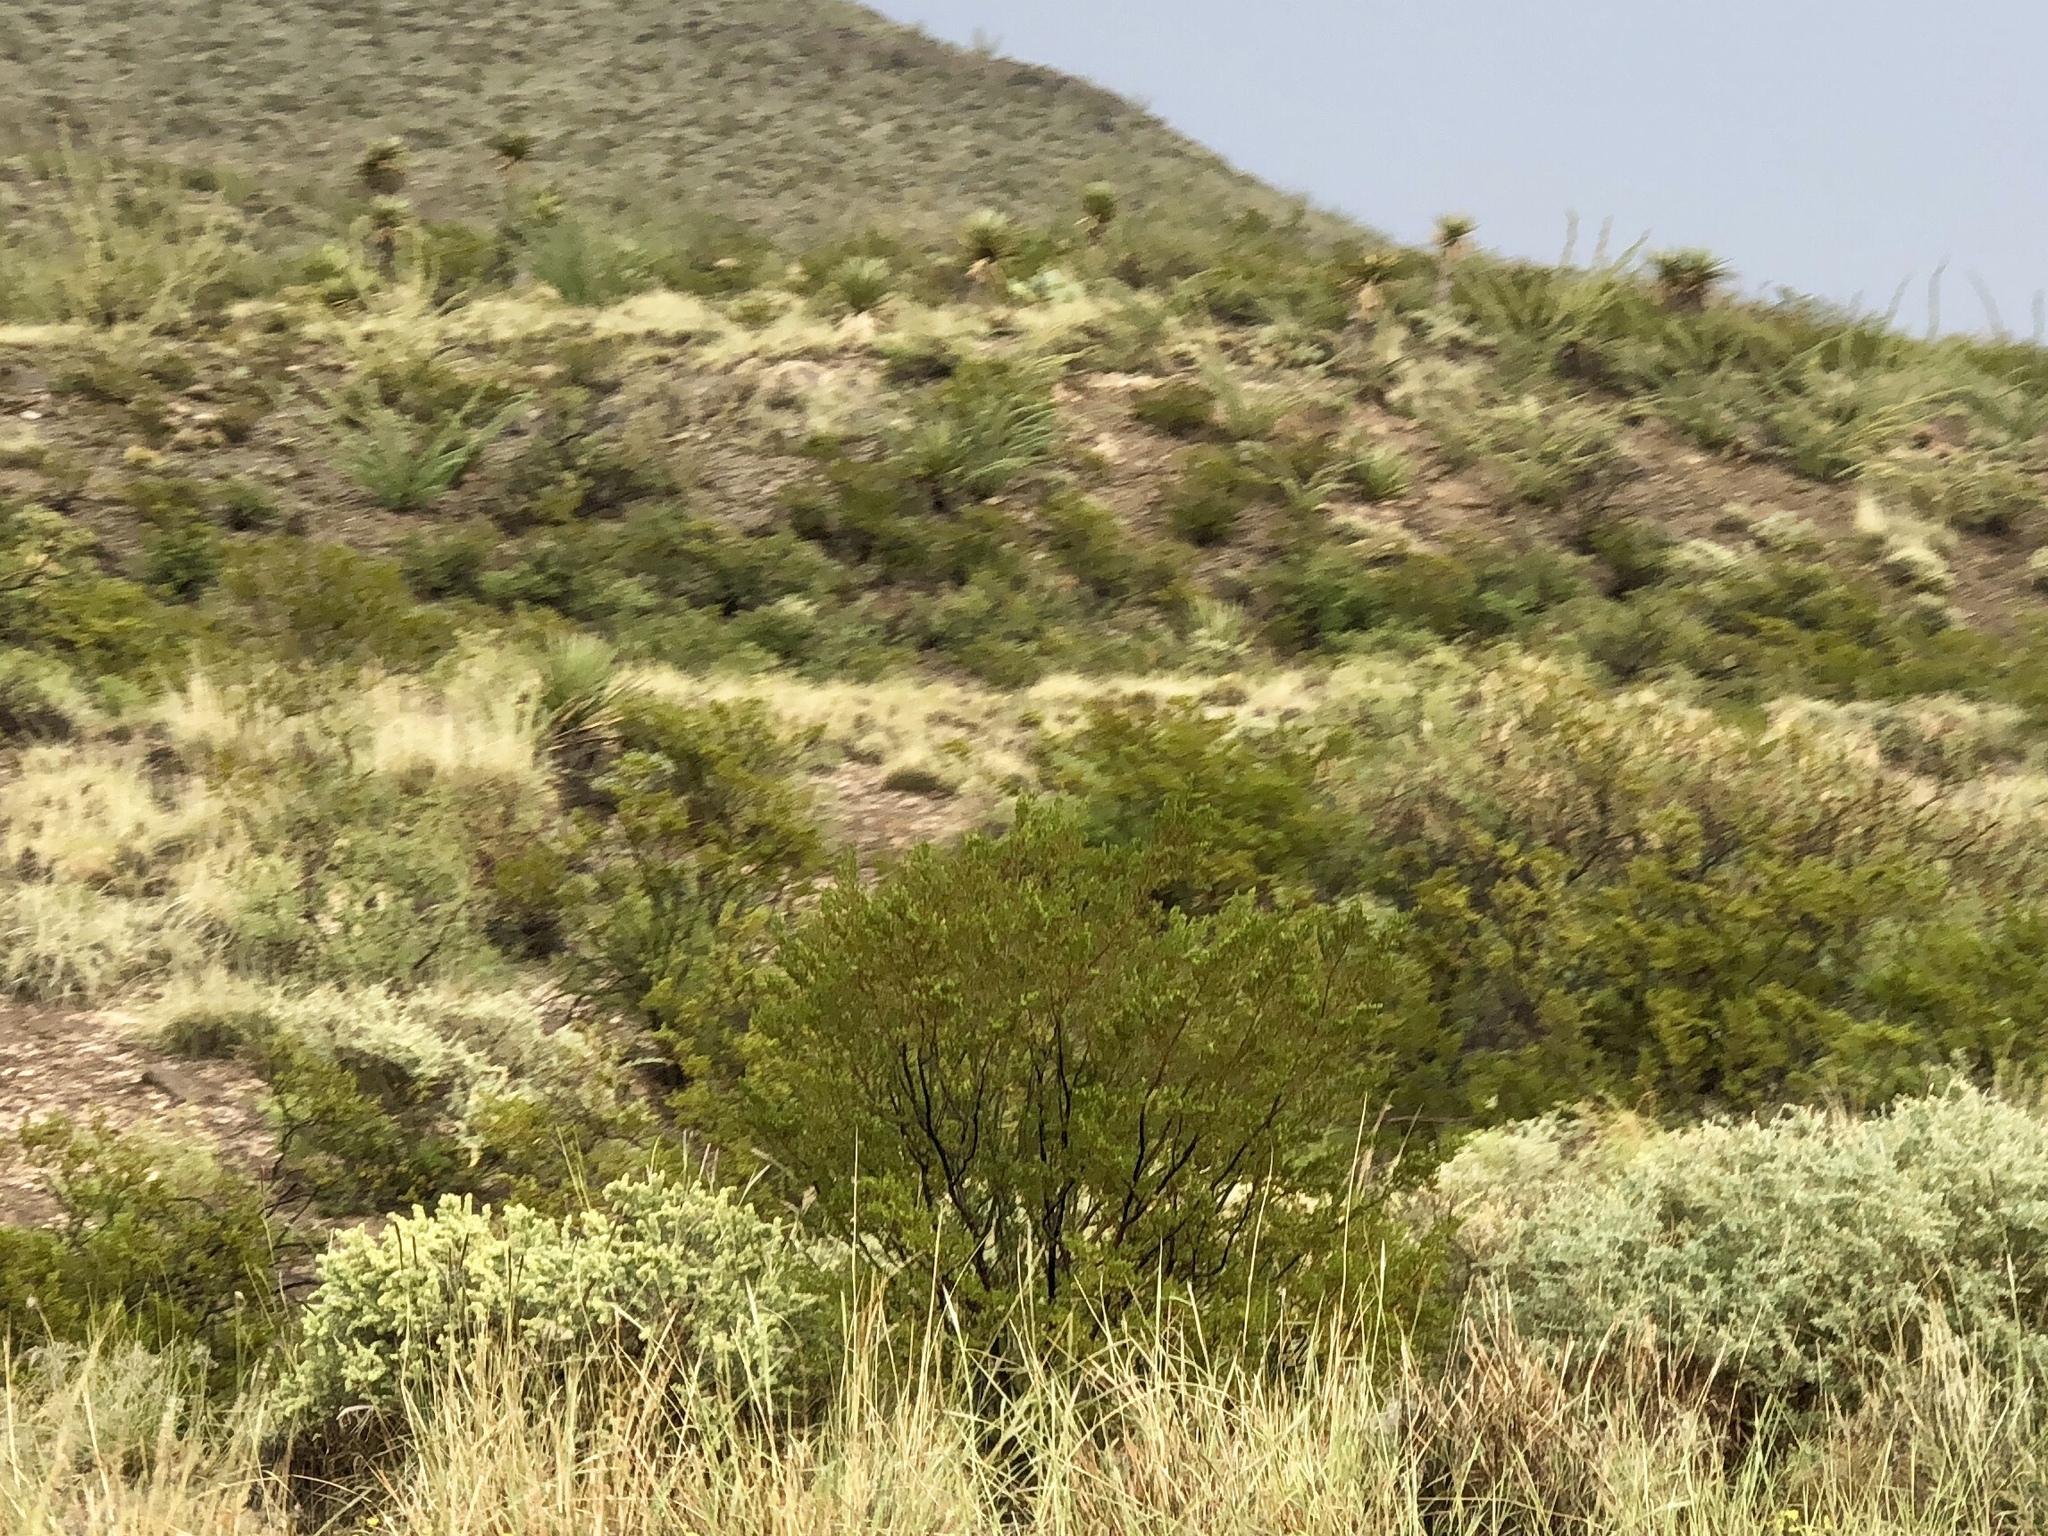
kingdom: Plantae
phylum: Tracheophyta
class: Magnoliopsida
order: Zygophyllales
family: Zygophyllaceae
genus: Larrea
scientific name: Larrea tridentata
